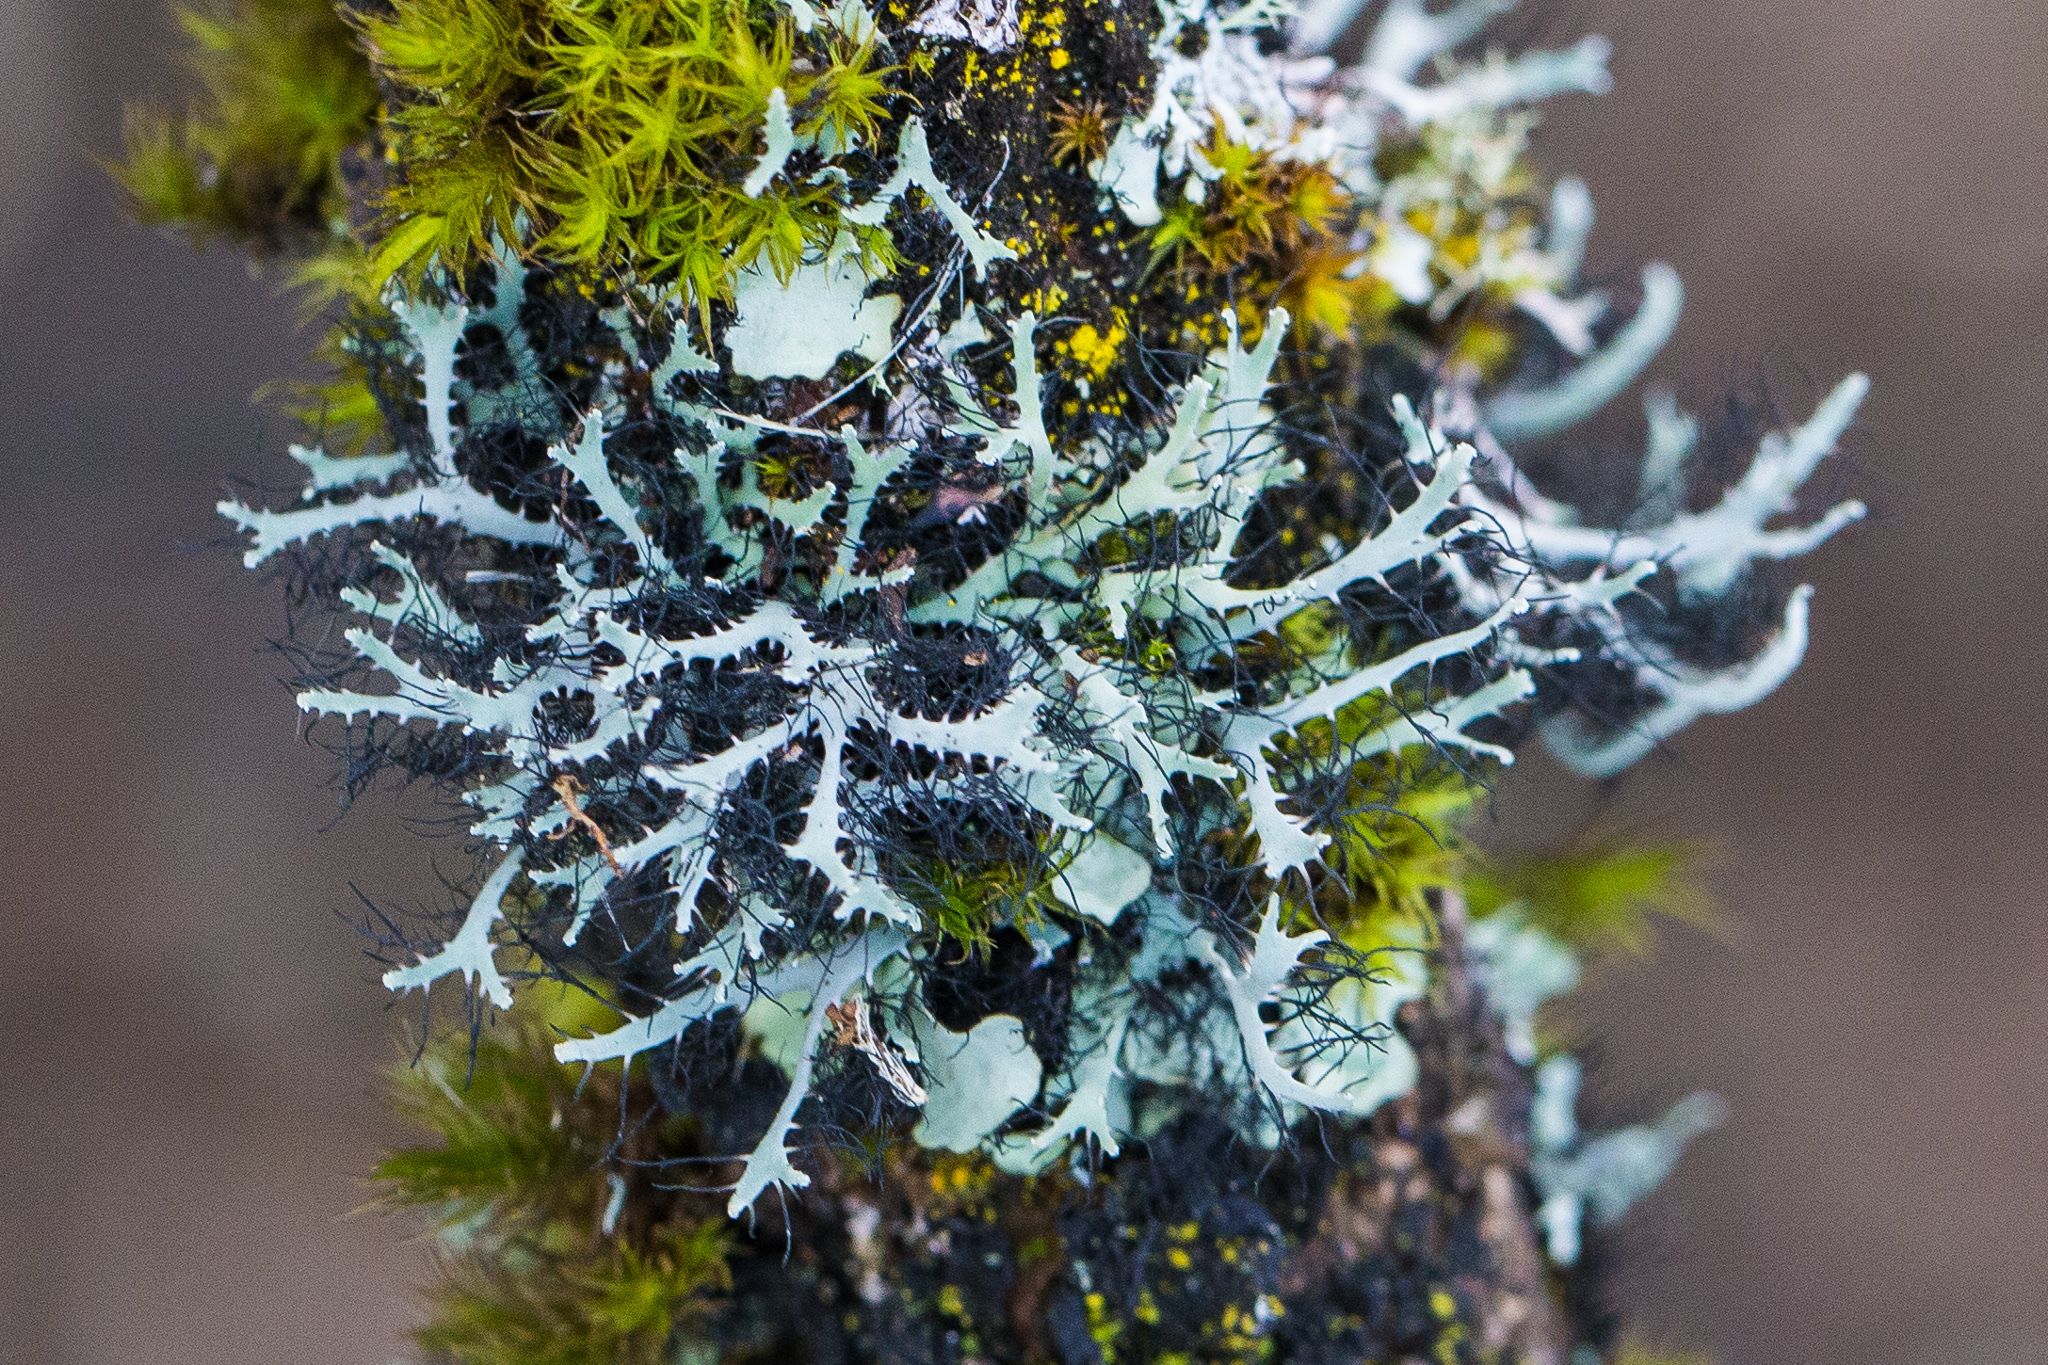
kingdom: Fungi
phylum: Ascomycota
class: Lecanoromycetes
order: Caliciales
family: Physciaceae
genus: Leucodermia
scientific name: Leucodermia leucomelos
